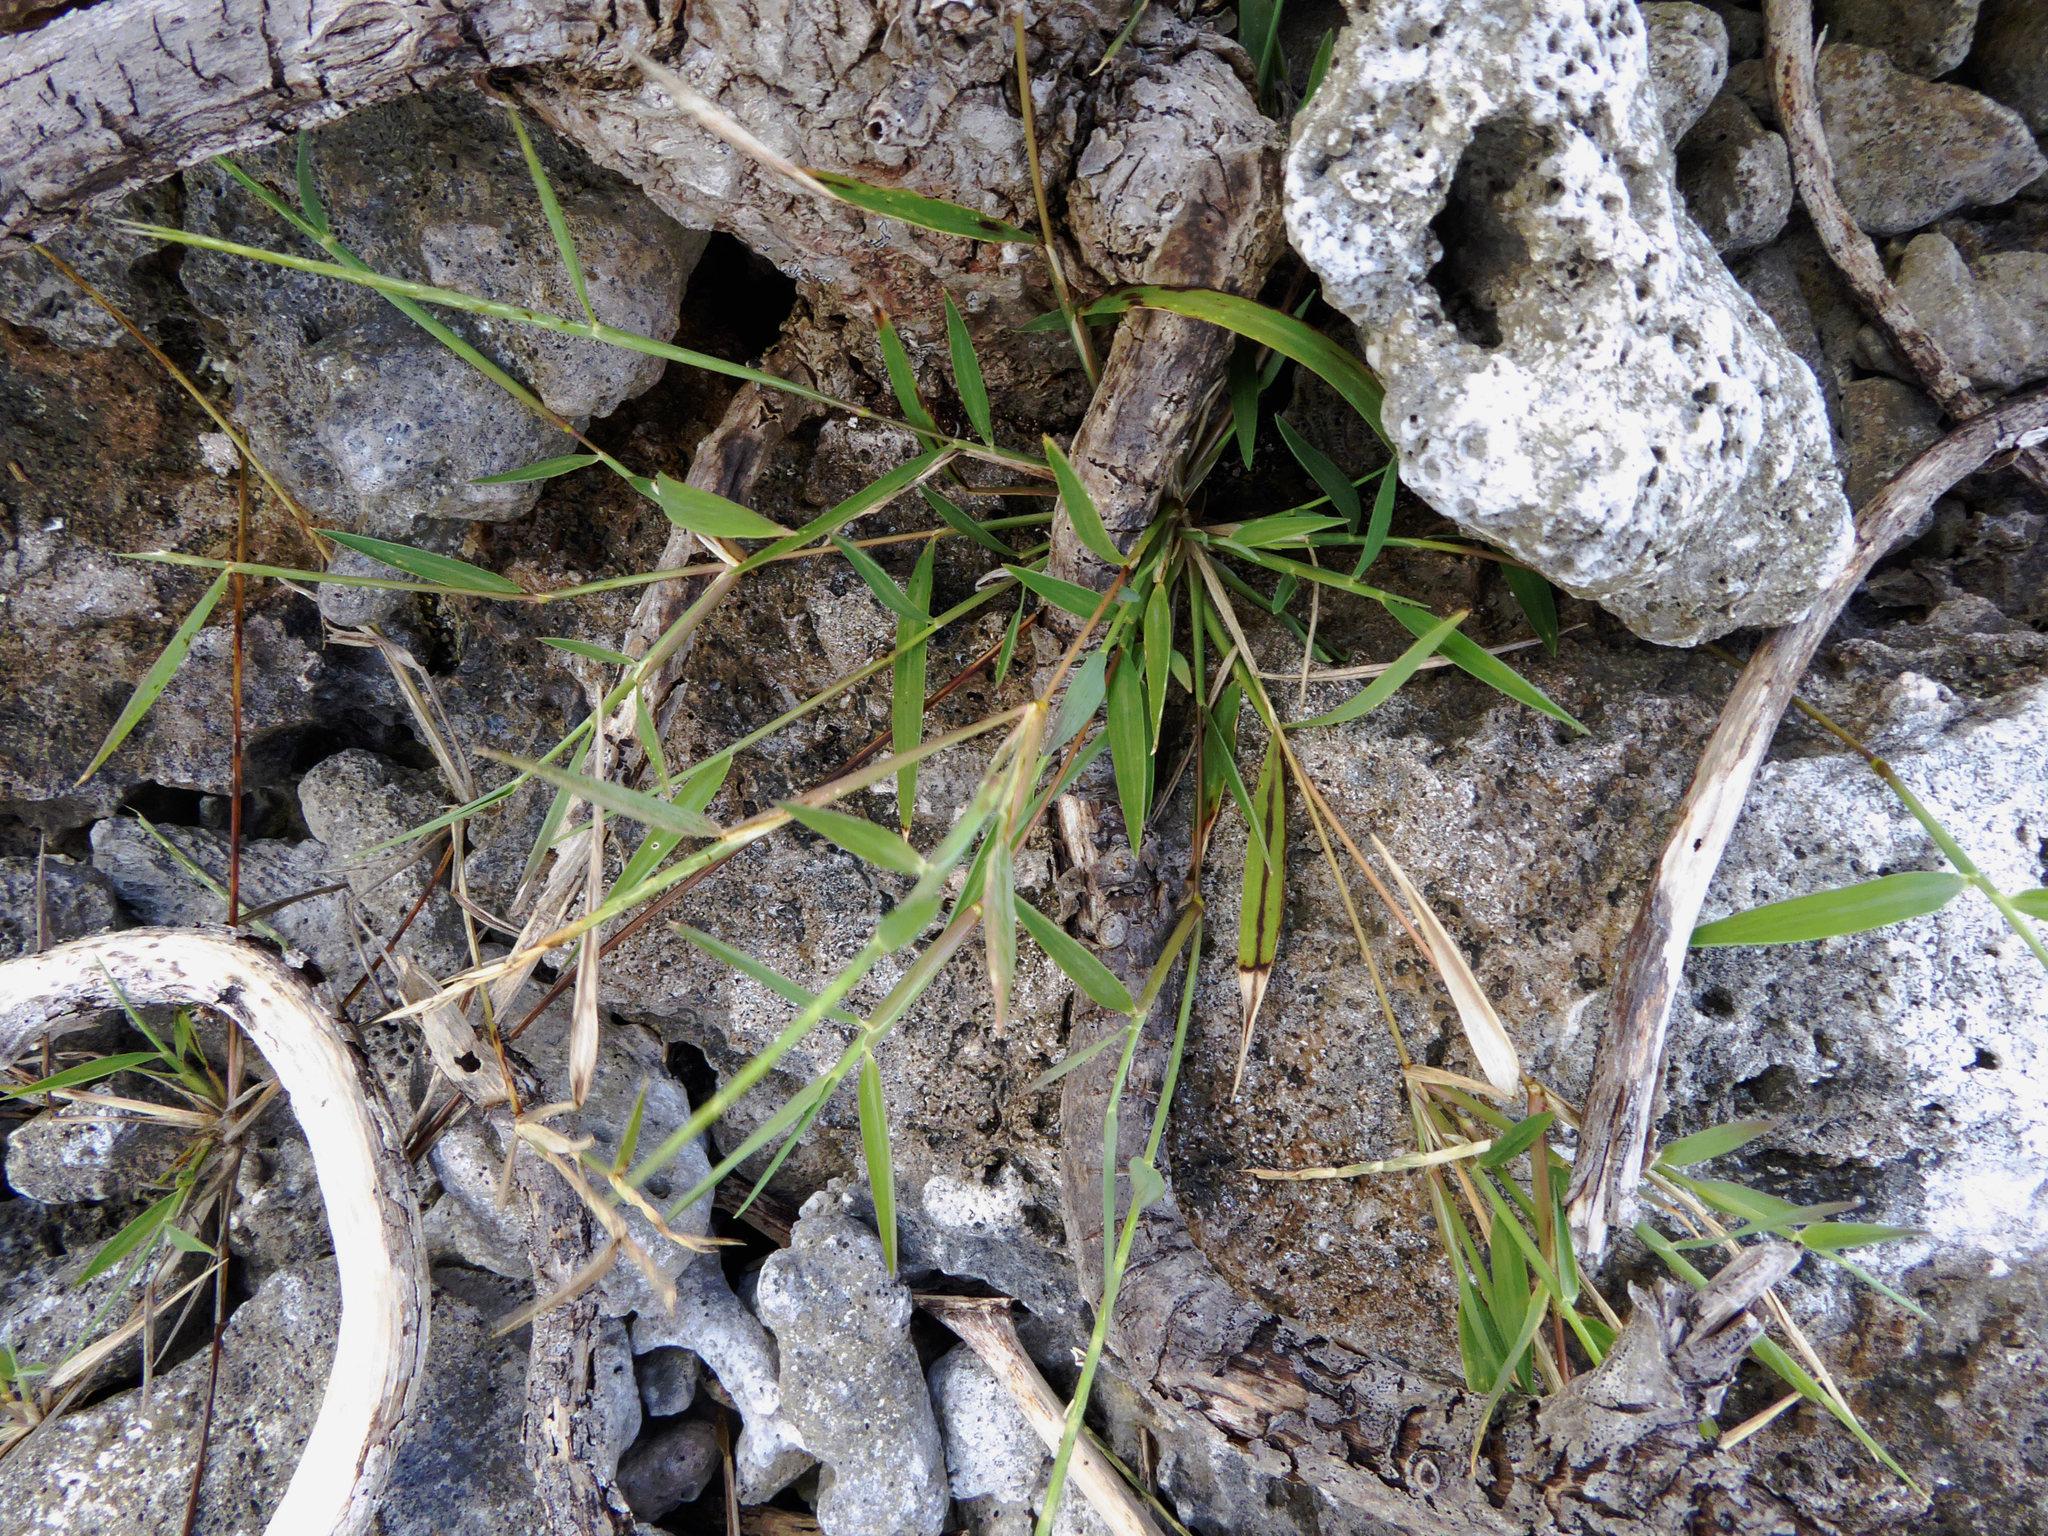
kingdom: Plantae
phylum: Tracheophyta
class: Liliopsida
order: Poales
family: Poaceae
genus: Lepturus
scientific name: Lepturus repens
